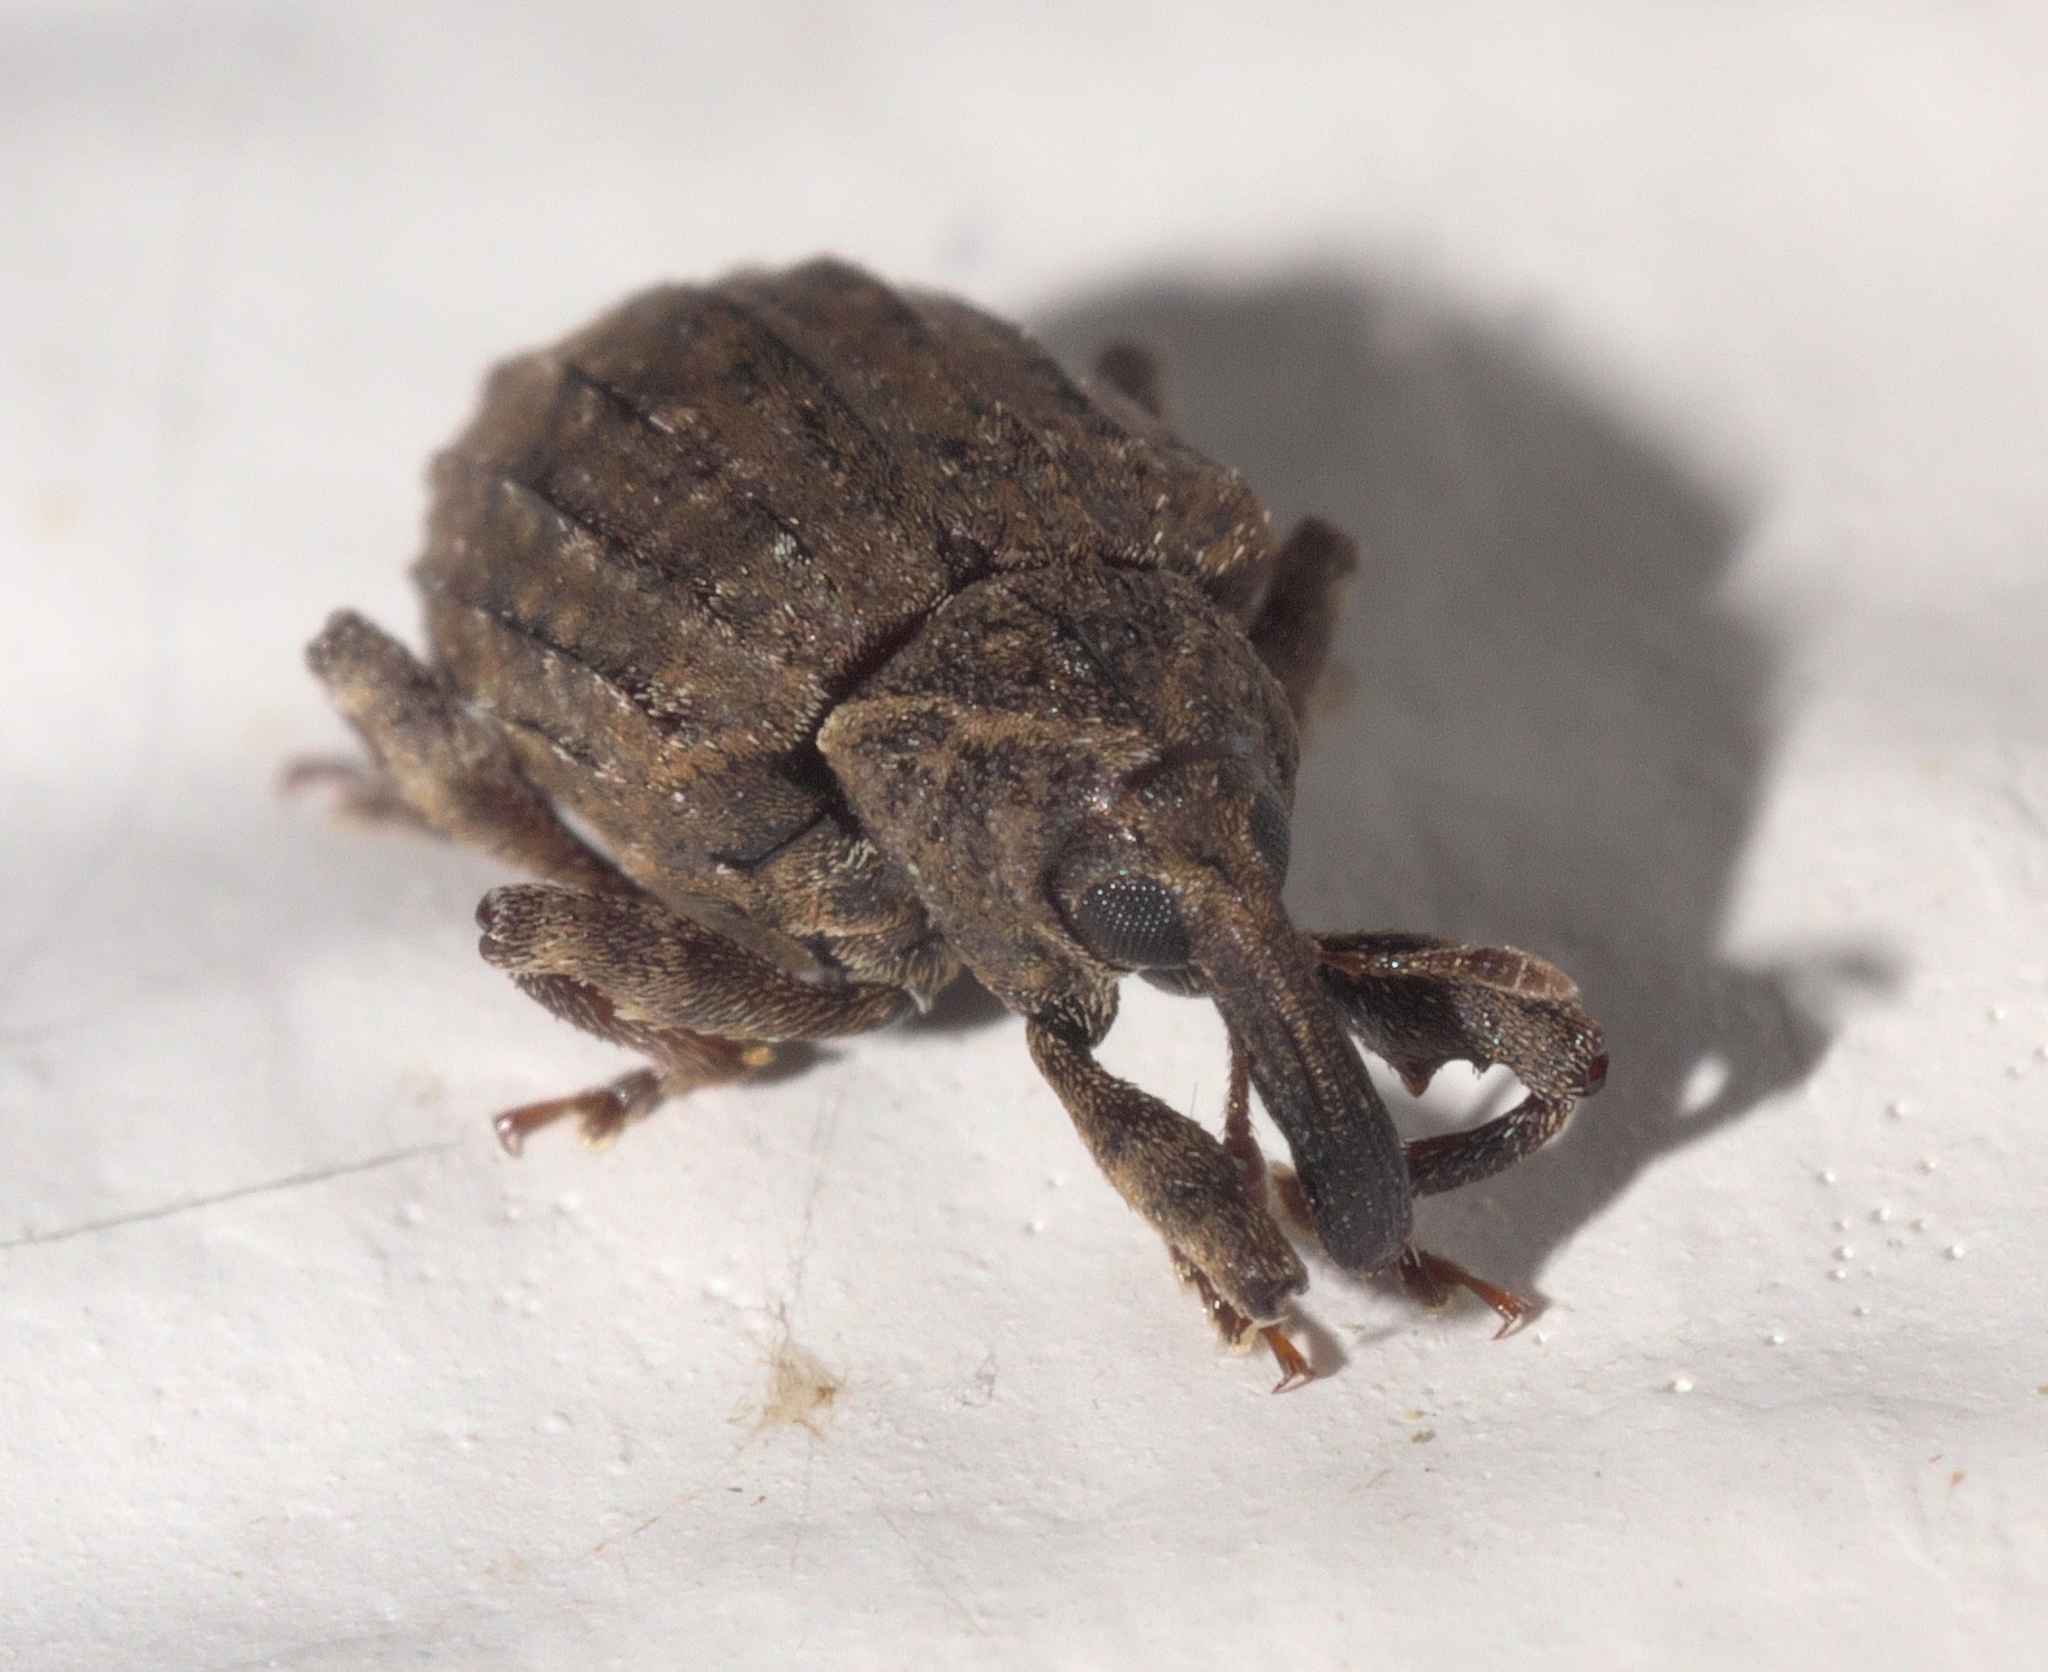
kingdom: Animalia
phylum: Arthropoda
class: Insecta
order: Coleoptera
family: Curculionidae
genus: Conotrachelus
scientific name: Conotrachelus seniculus
